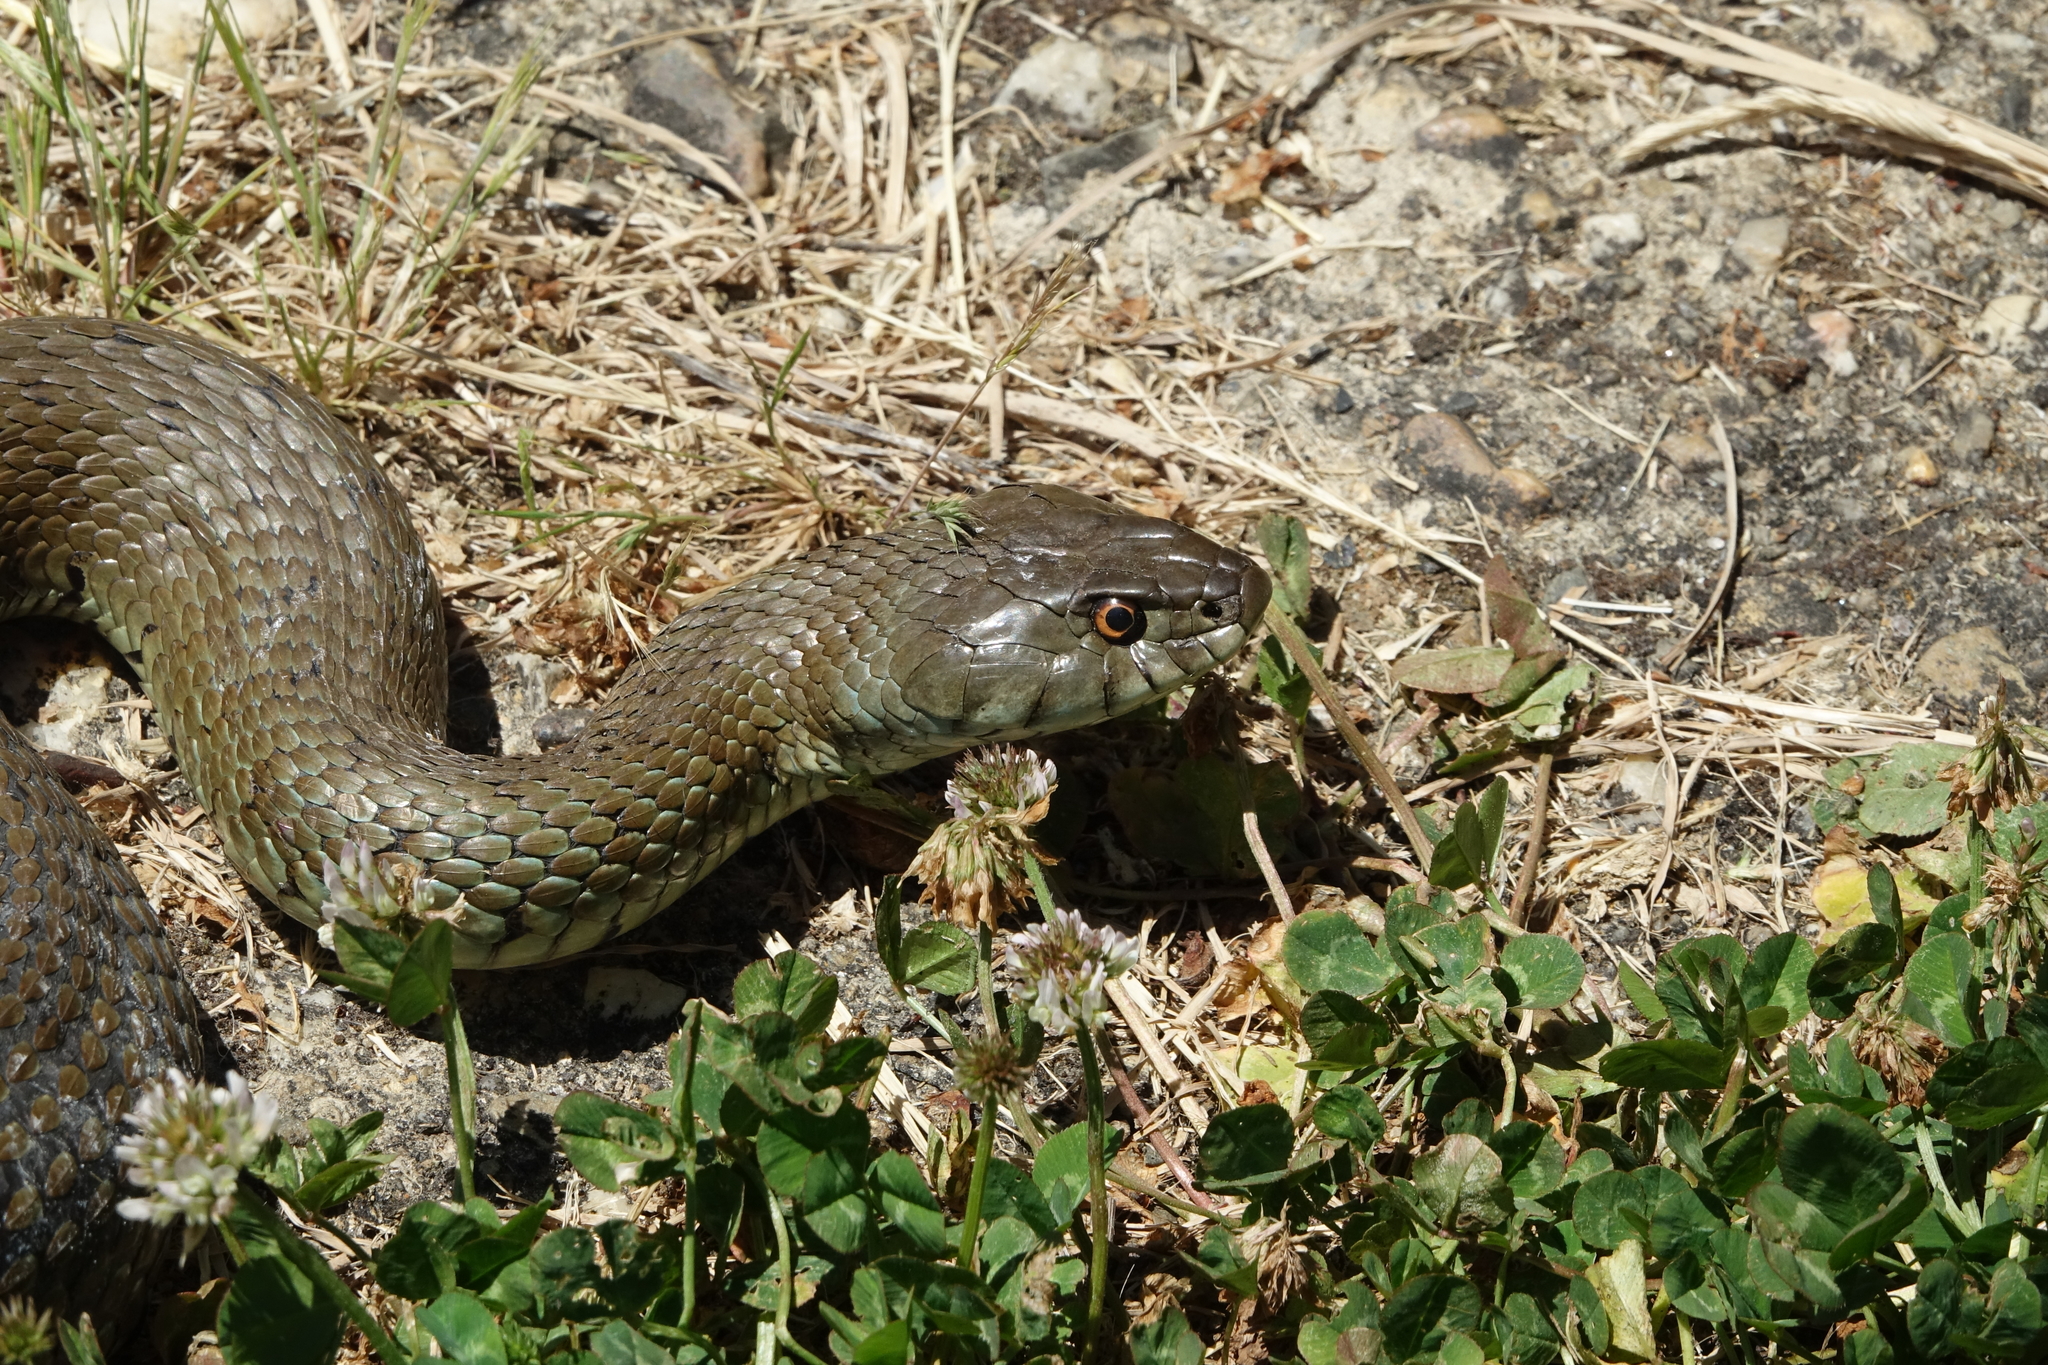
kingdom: Animalia
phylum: Chordata
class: Squamata
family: Colubridae
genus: Natrix
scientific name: Natrix astreptophora
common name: Red-eyed grass snake
